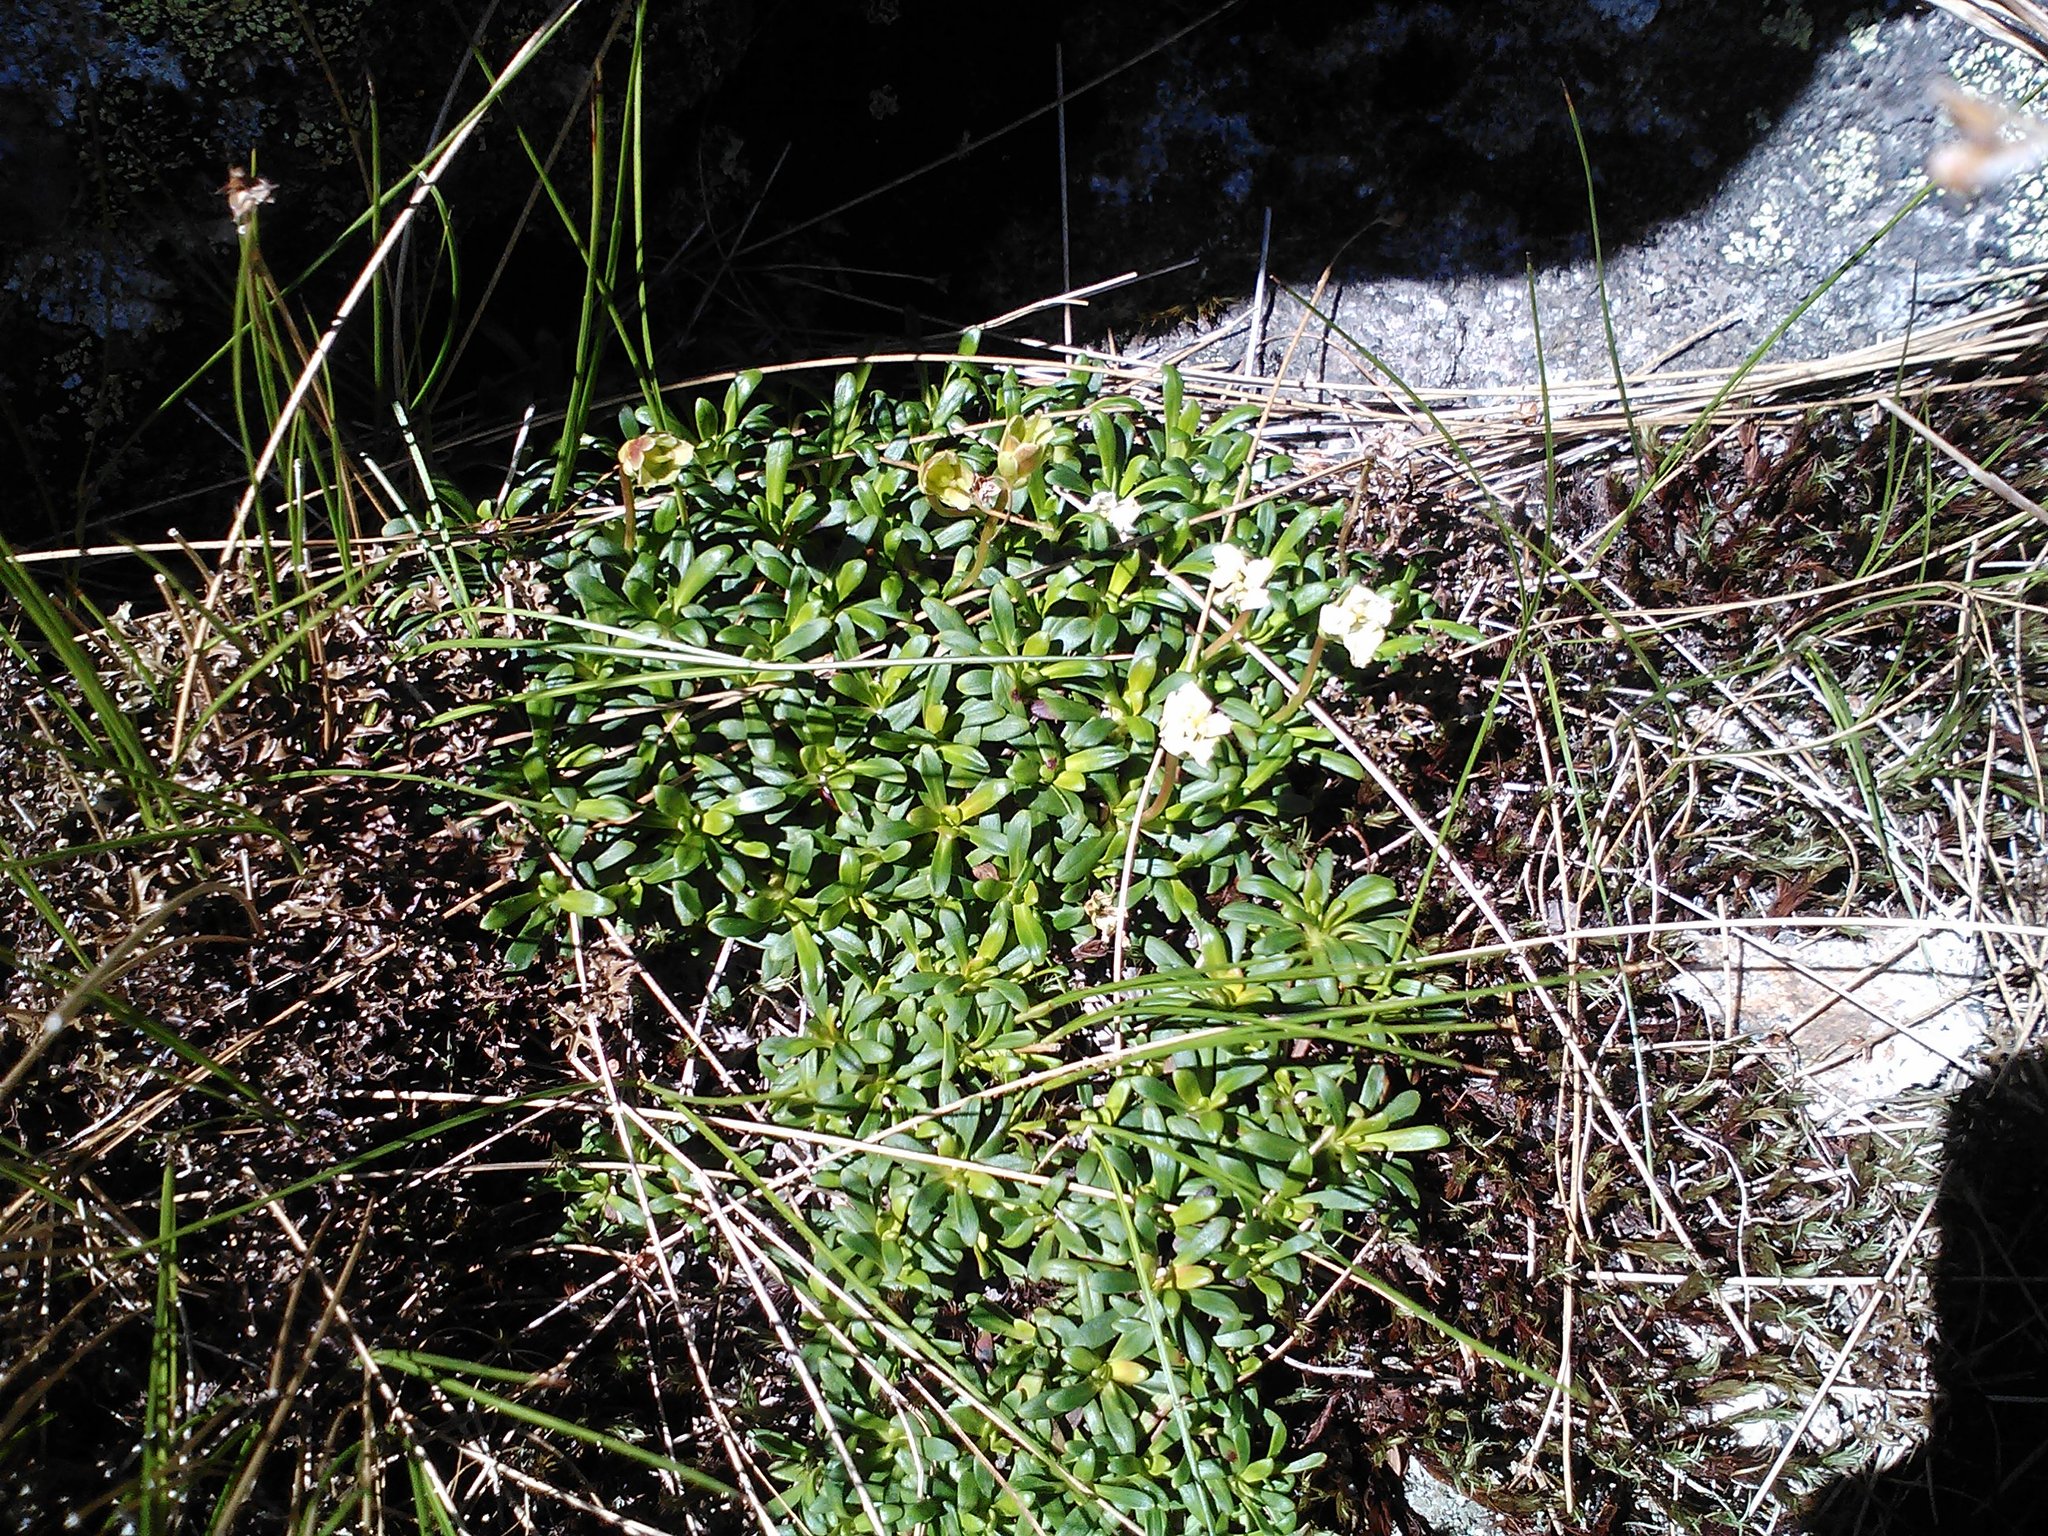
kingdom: Plantae
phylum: Tracheophyta
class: Magnoliopsida
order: Ericales
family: Diapensiaceae
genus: Diapensia
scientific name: Diapensia lapponica
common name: Diapensia
